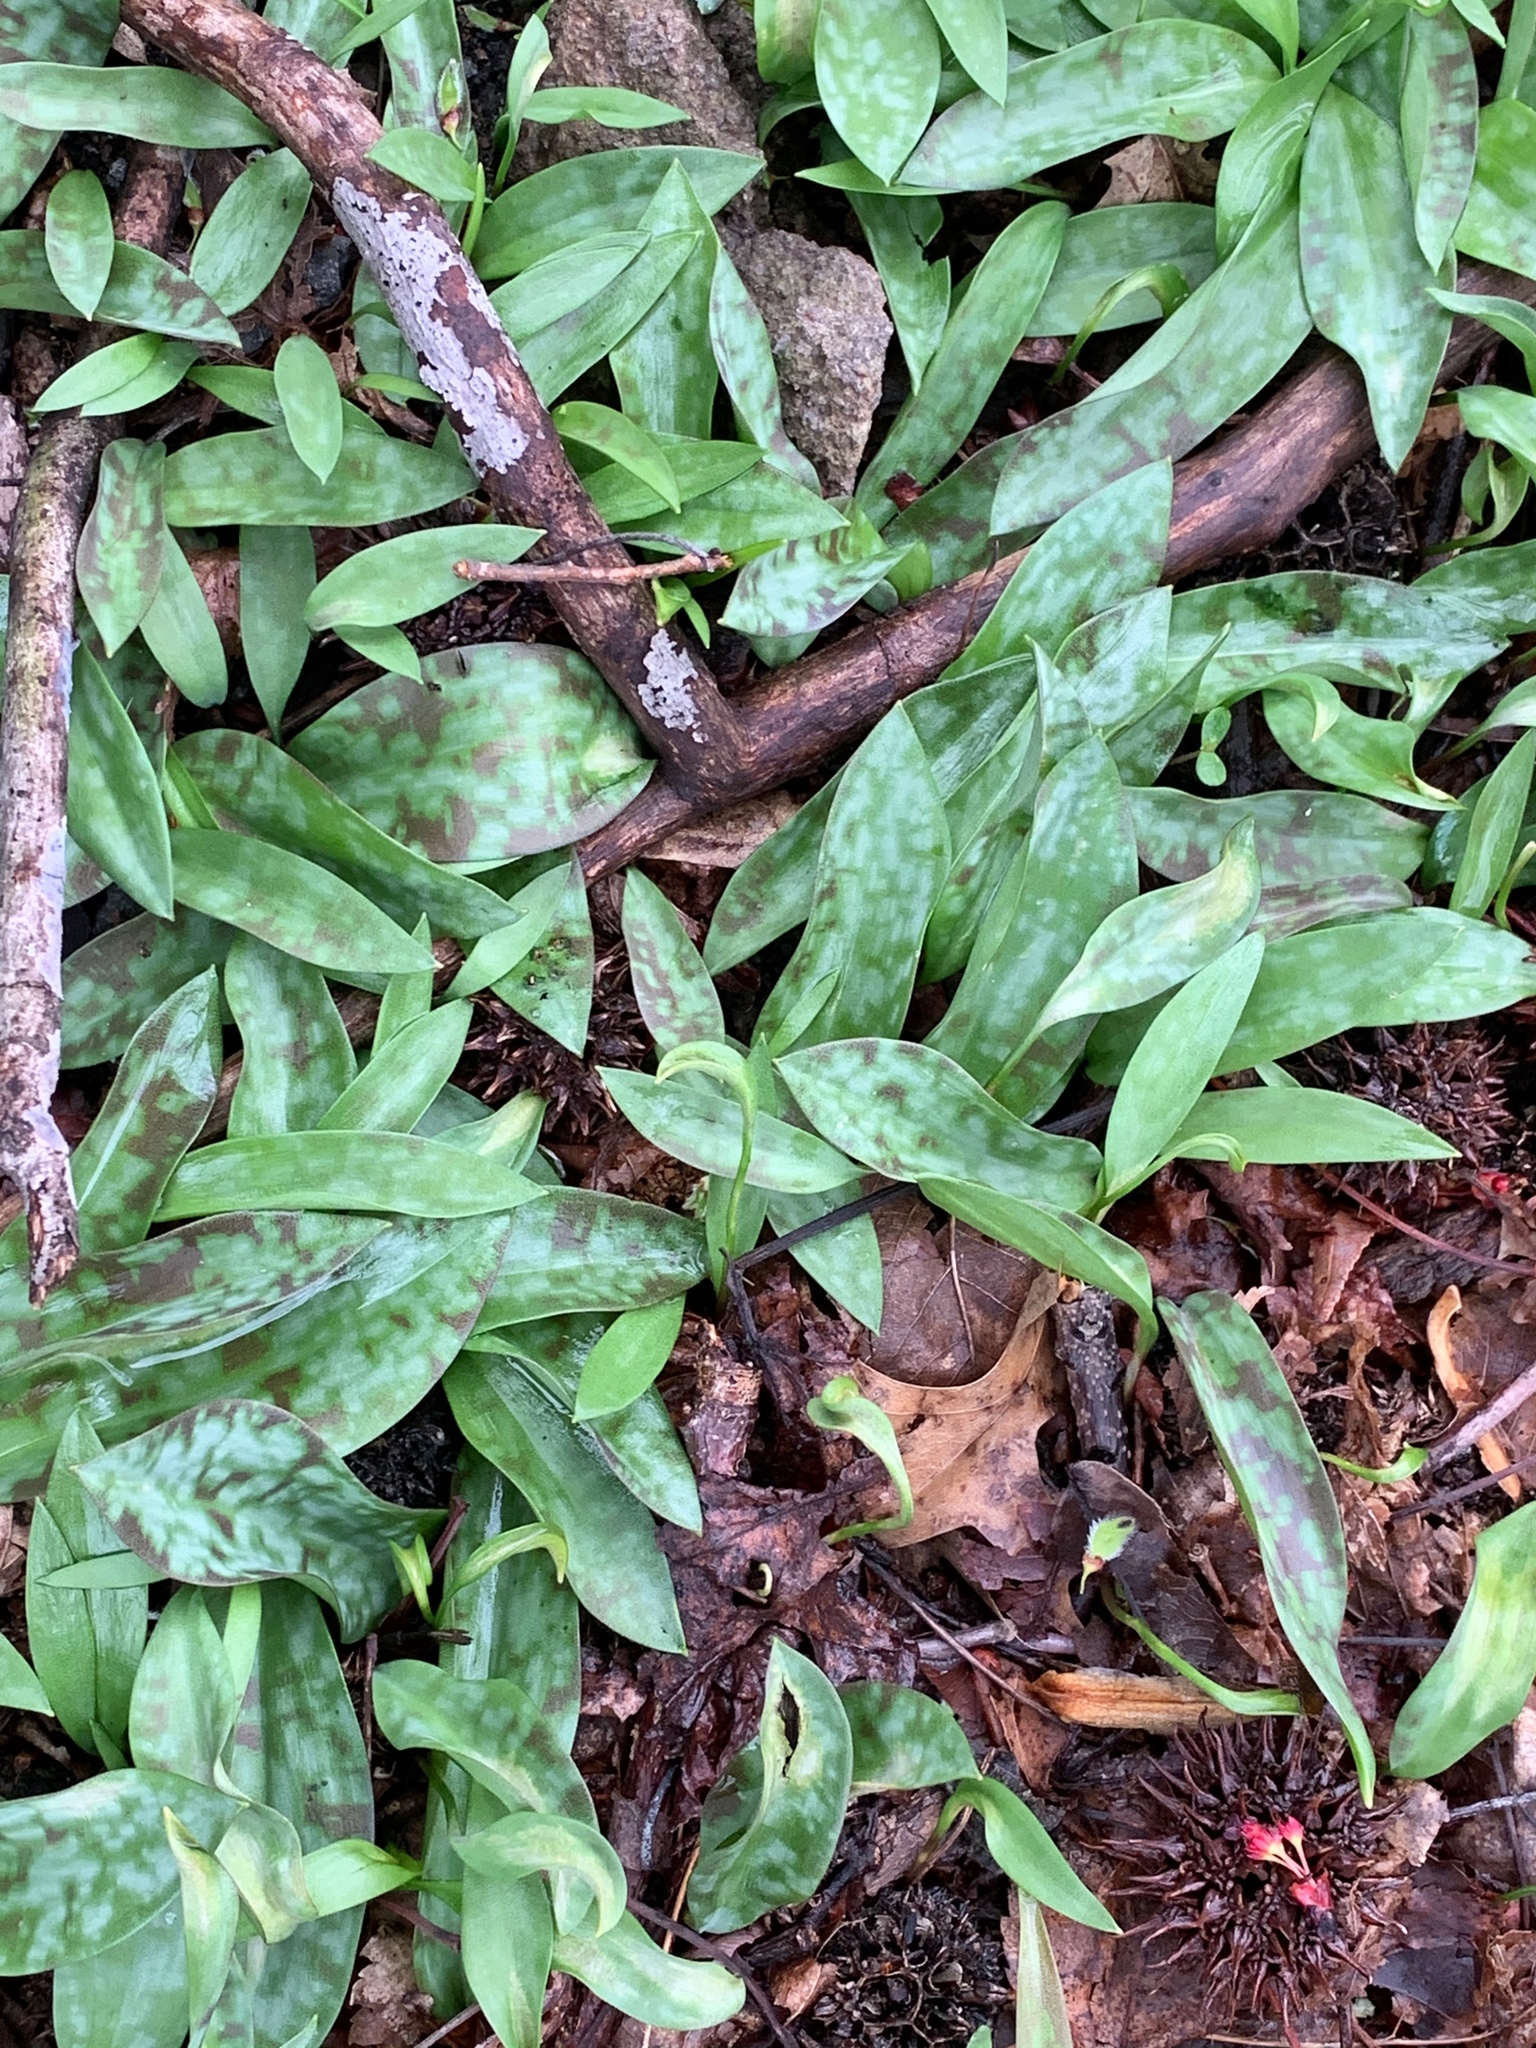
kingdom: Plantae
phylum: Tracheophyta
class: Liliopsida
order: Liliales
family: Liliaceae
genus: Erythronium
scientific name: Erythronium americanum
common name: Yellow adder's-tongue
